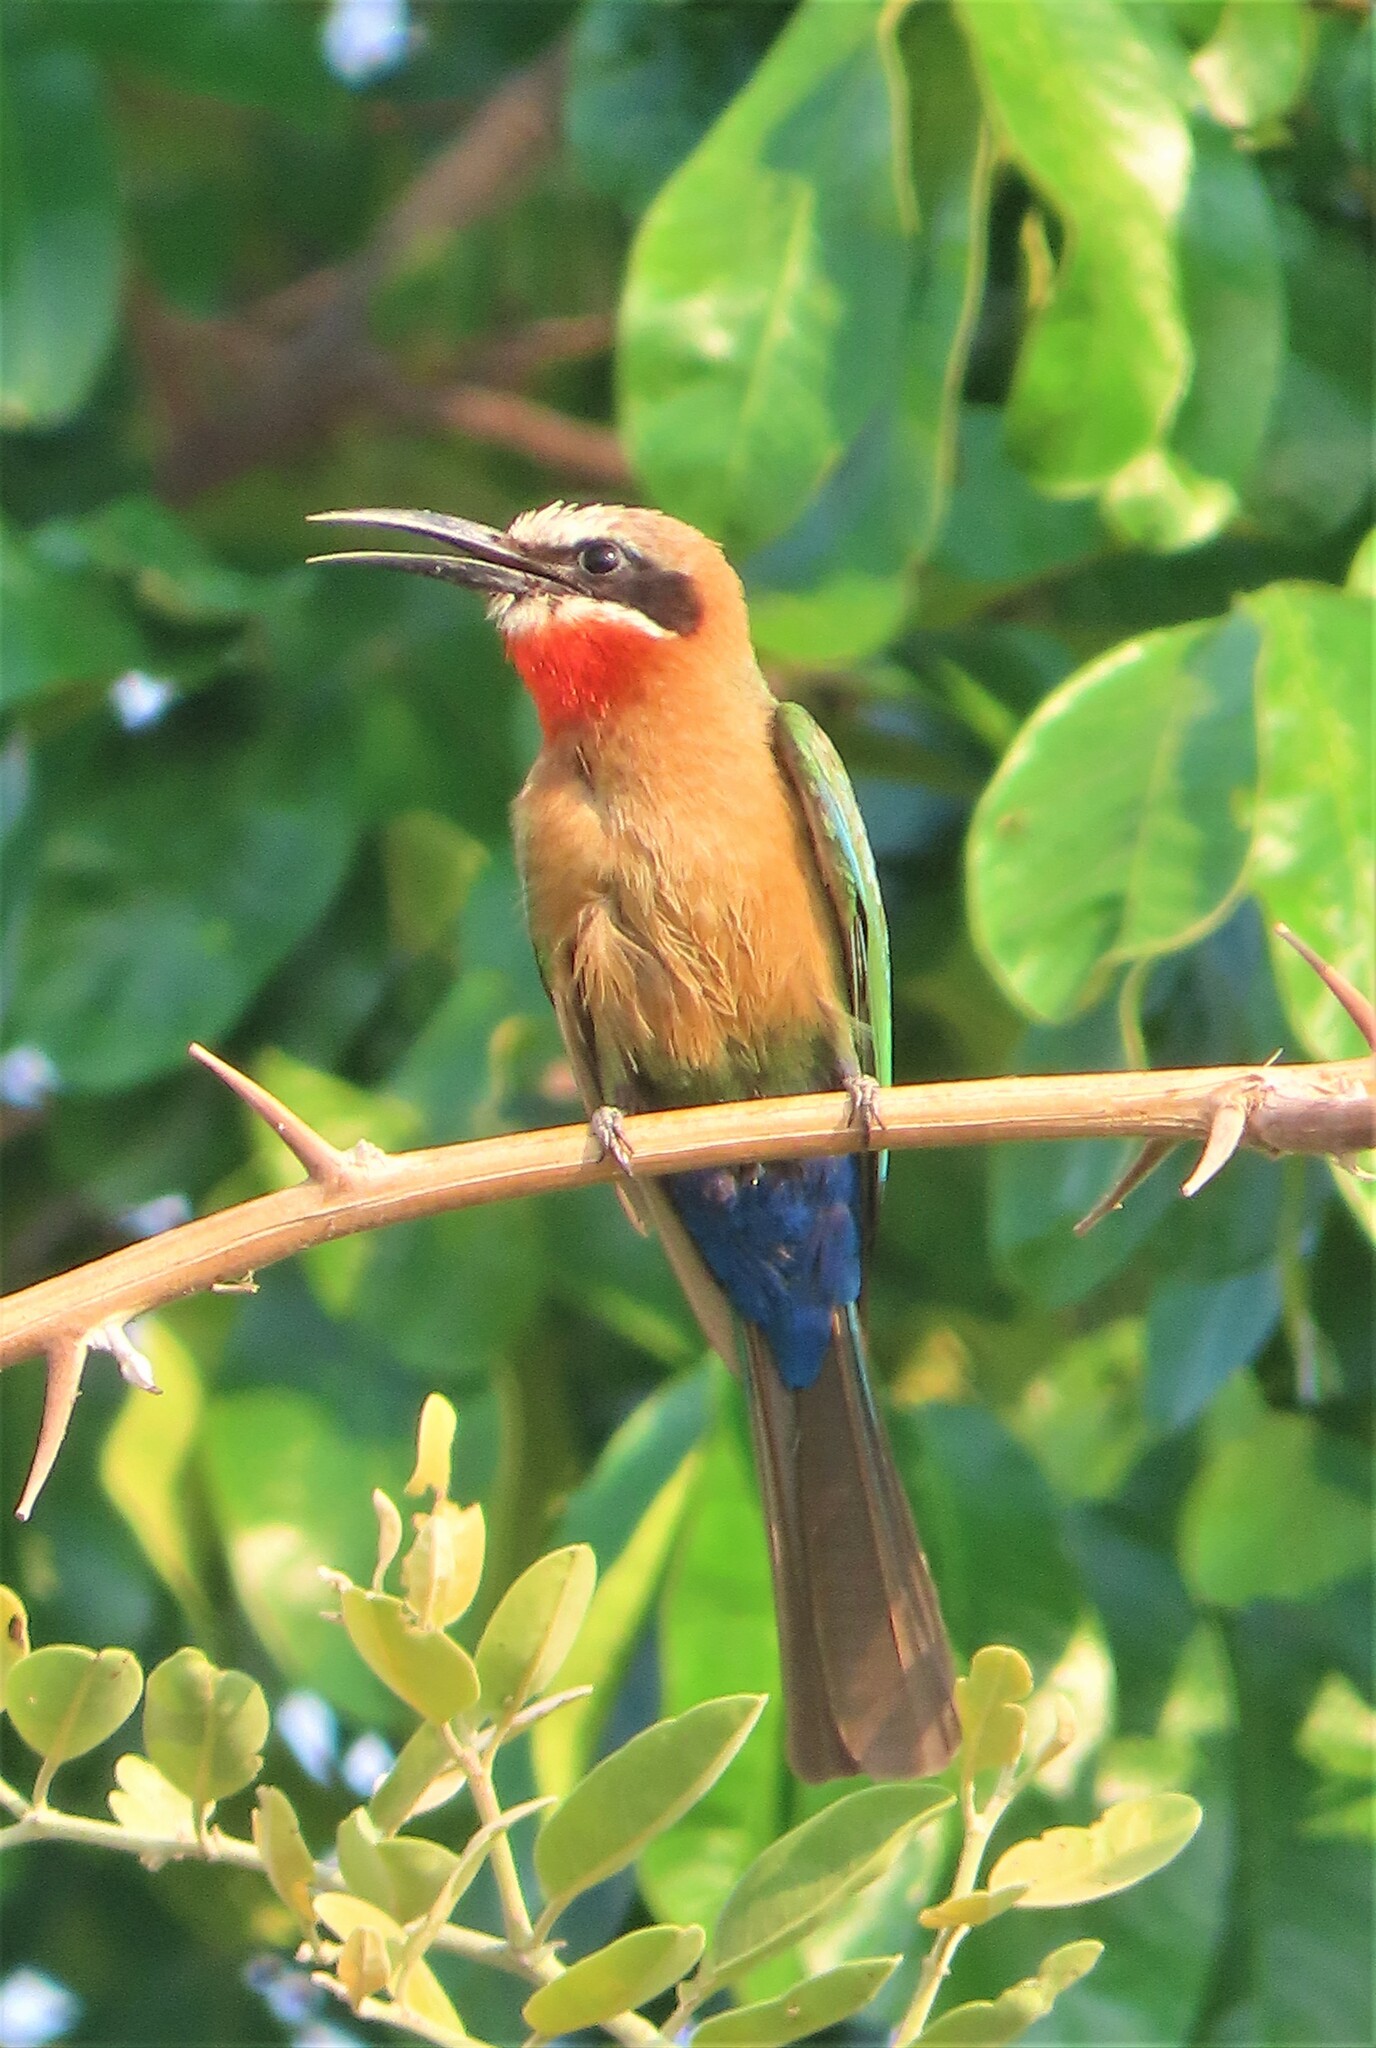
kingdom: Animalia
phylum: Chordata
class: Aves
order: Coraciiformes
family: Meropidae
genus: Merops
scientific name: Merops bullockoides
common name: White-fronted bee-eater
